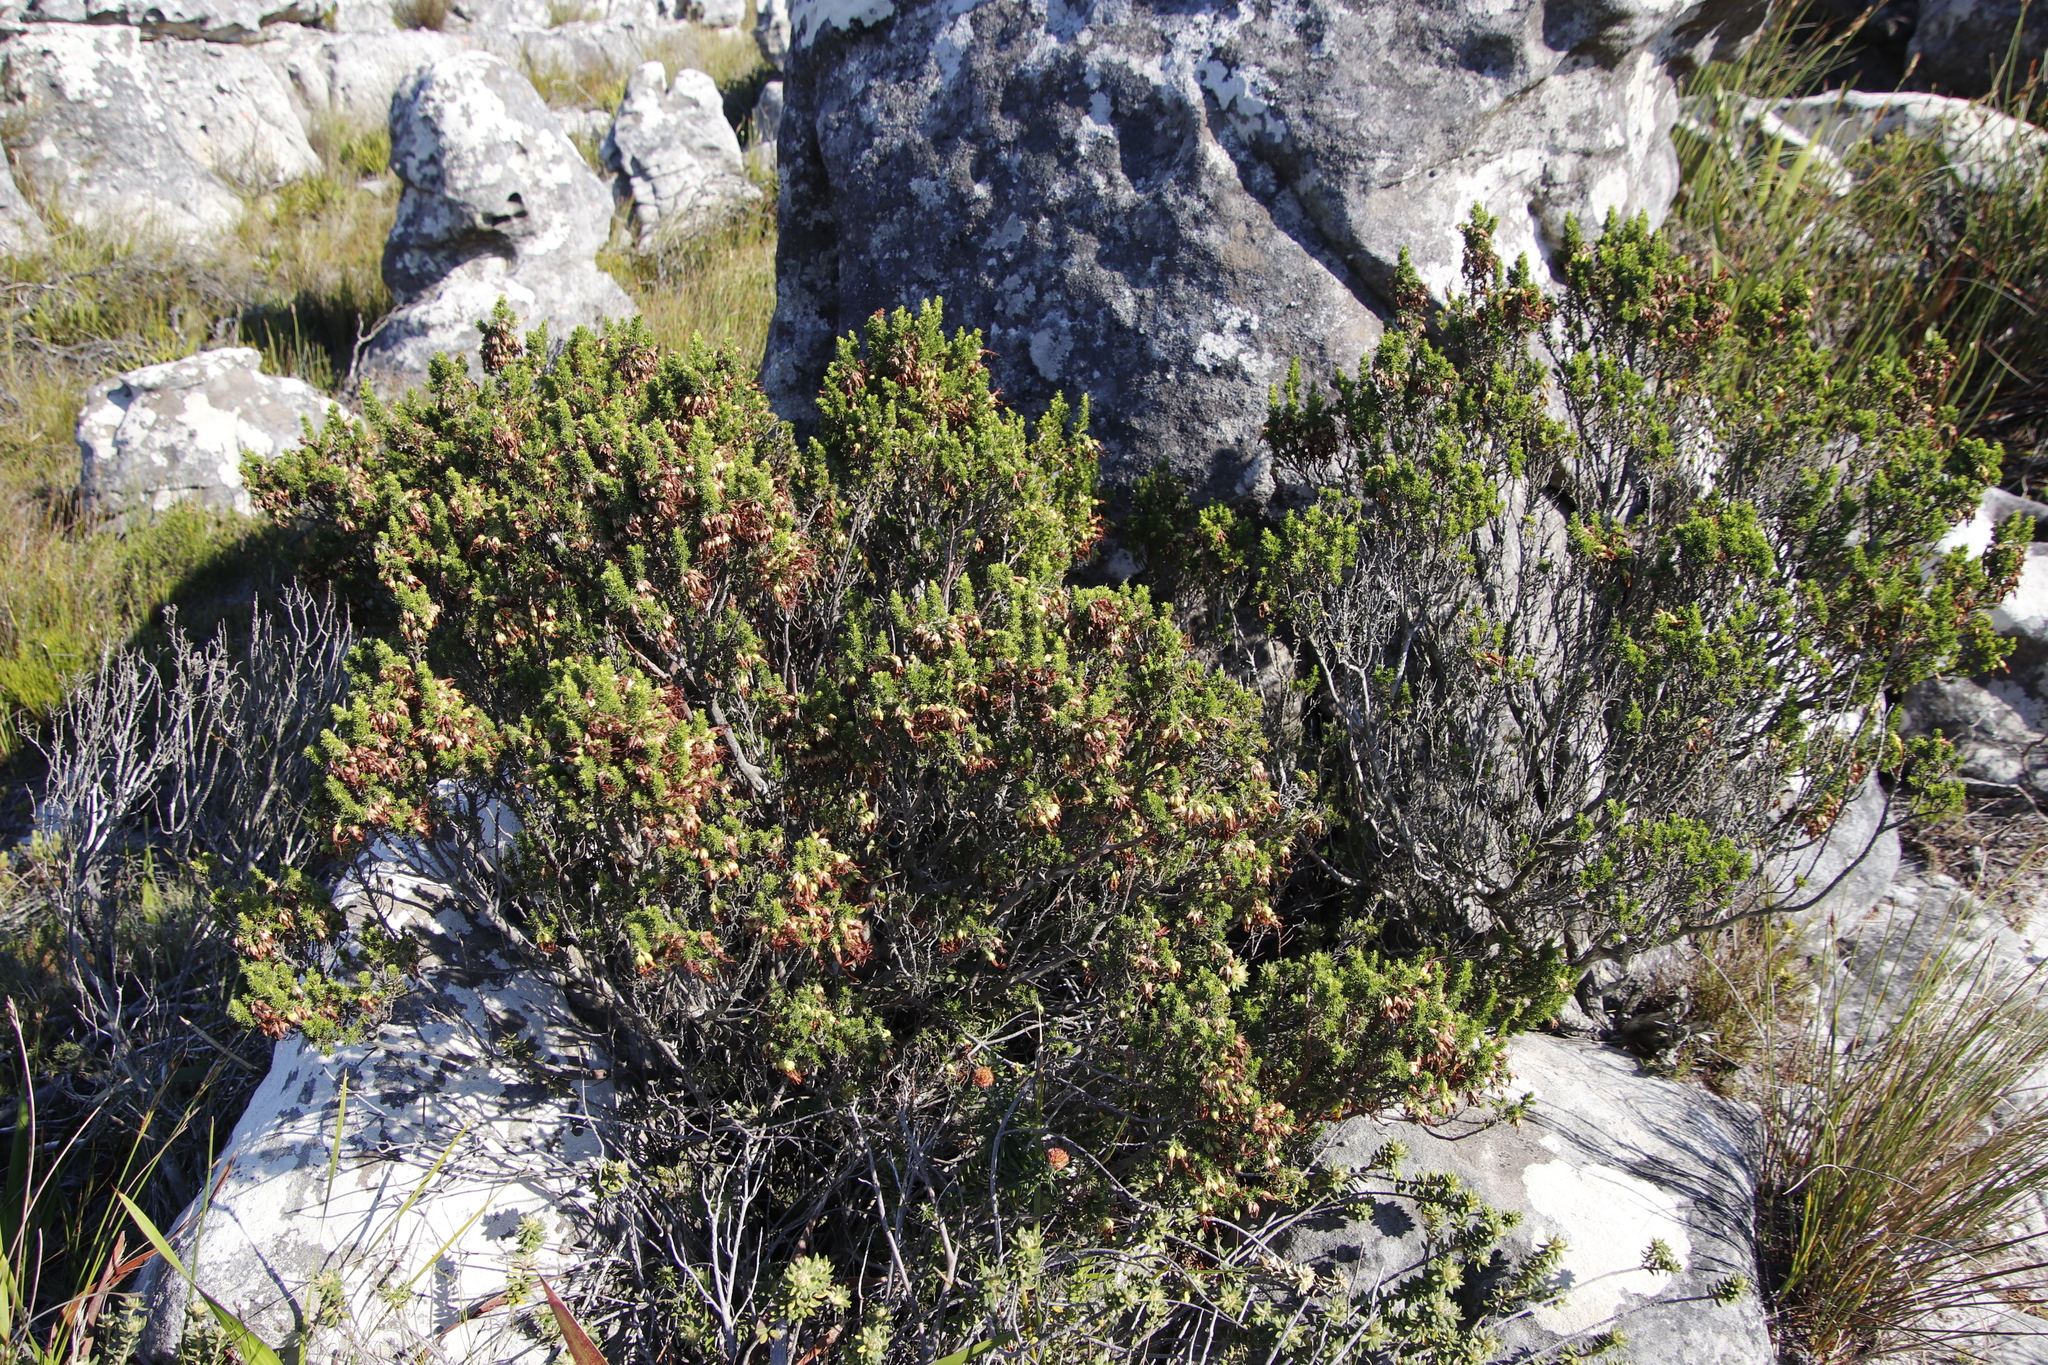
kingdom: Plantae
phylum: Tracheophyta
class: Magnoliopsida
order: Ericales
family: Ericaceae
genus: Erica
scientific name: Erica coccinea
